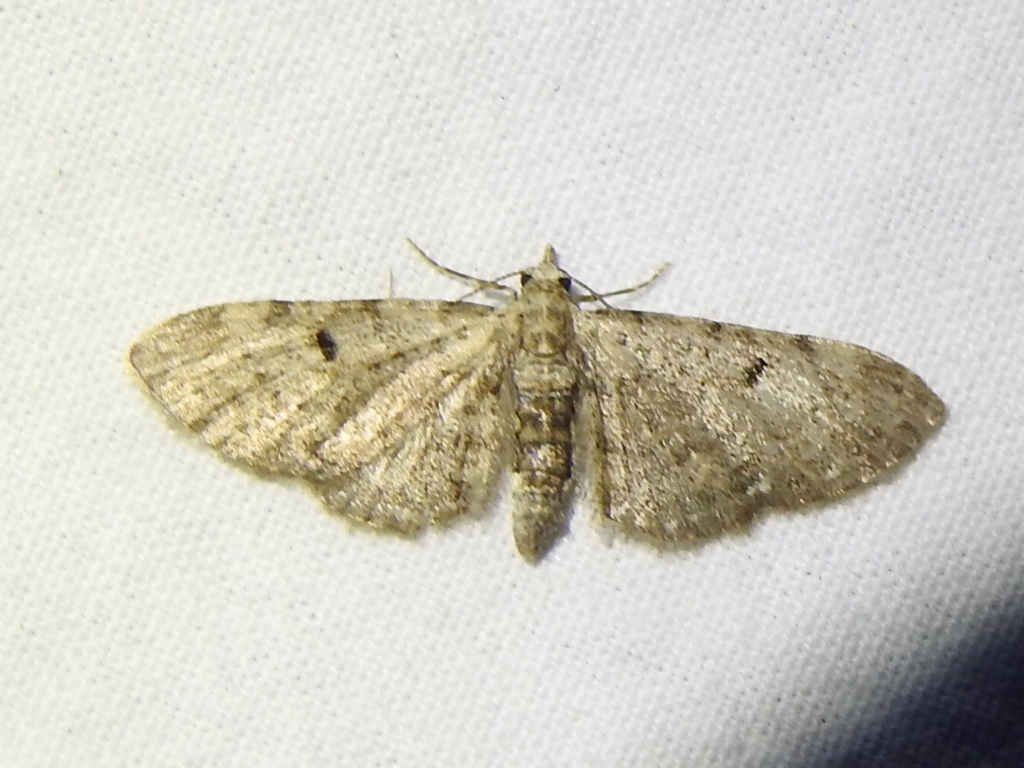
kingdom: Animalia
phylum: Arthropoda
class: Insecta
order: Lepidoptera
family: Geometridae
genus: Eupithecia
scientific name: Eupithecia miserulata
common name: Common eupithecia
